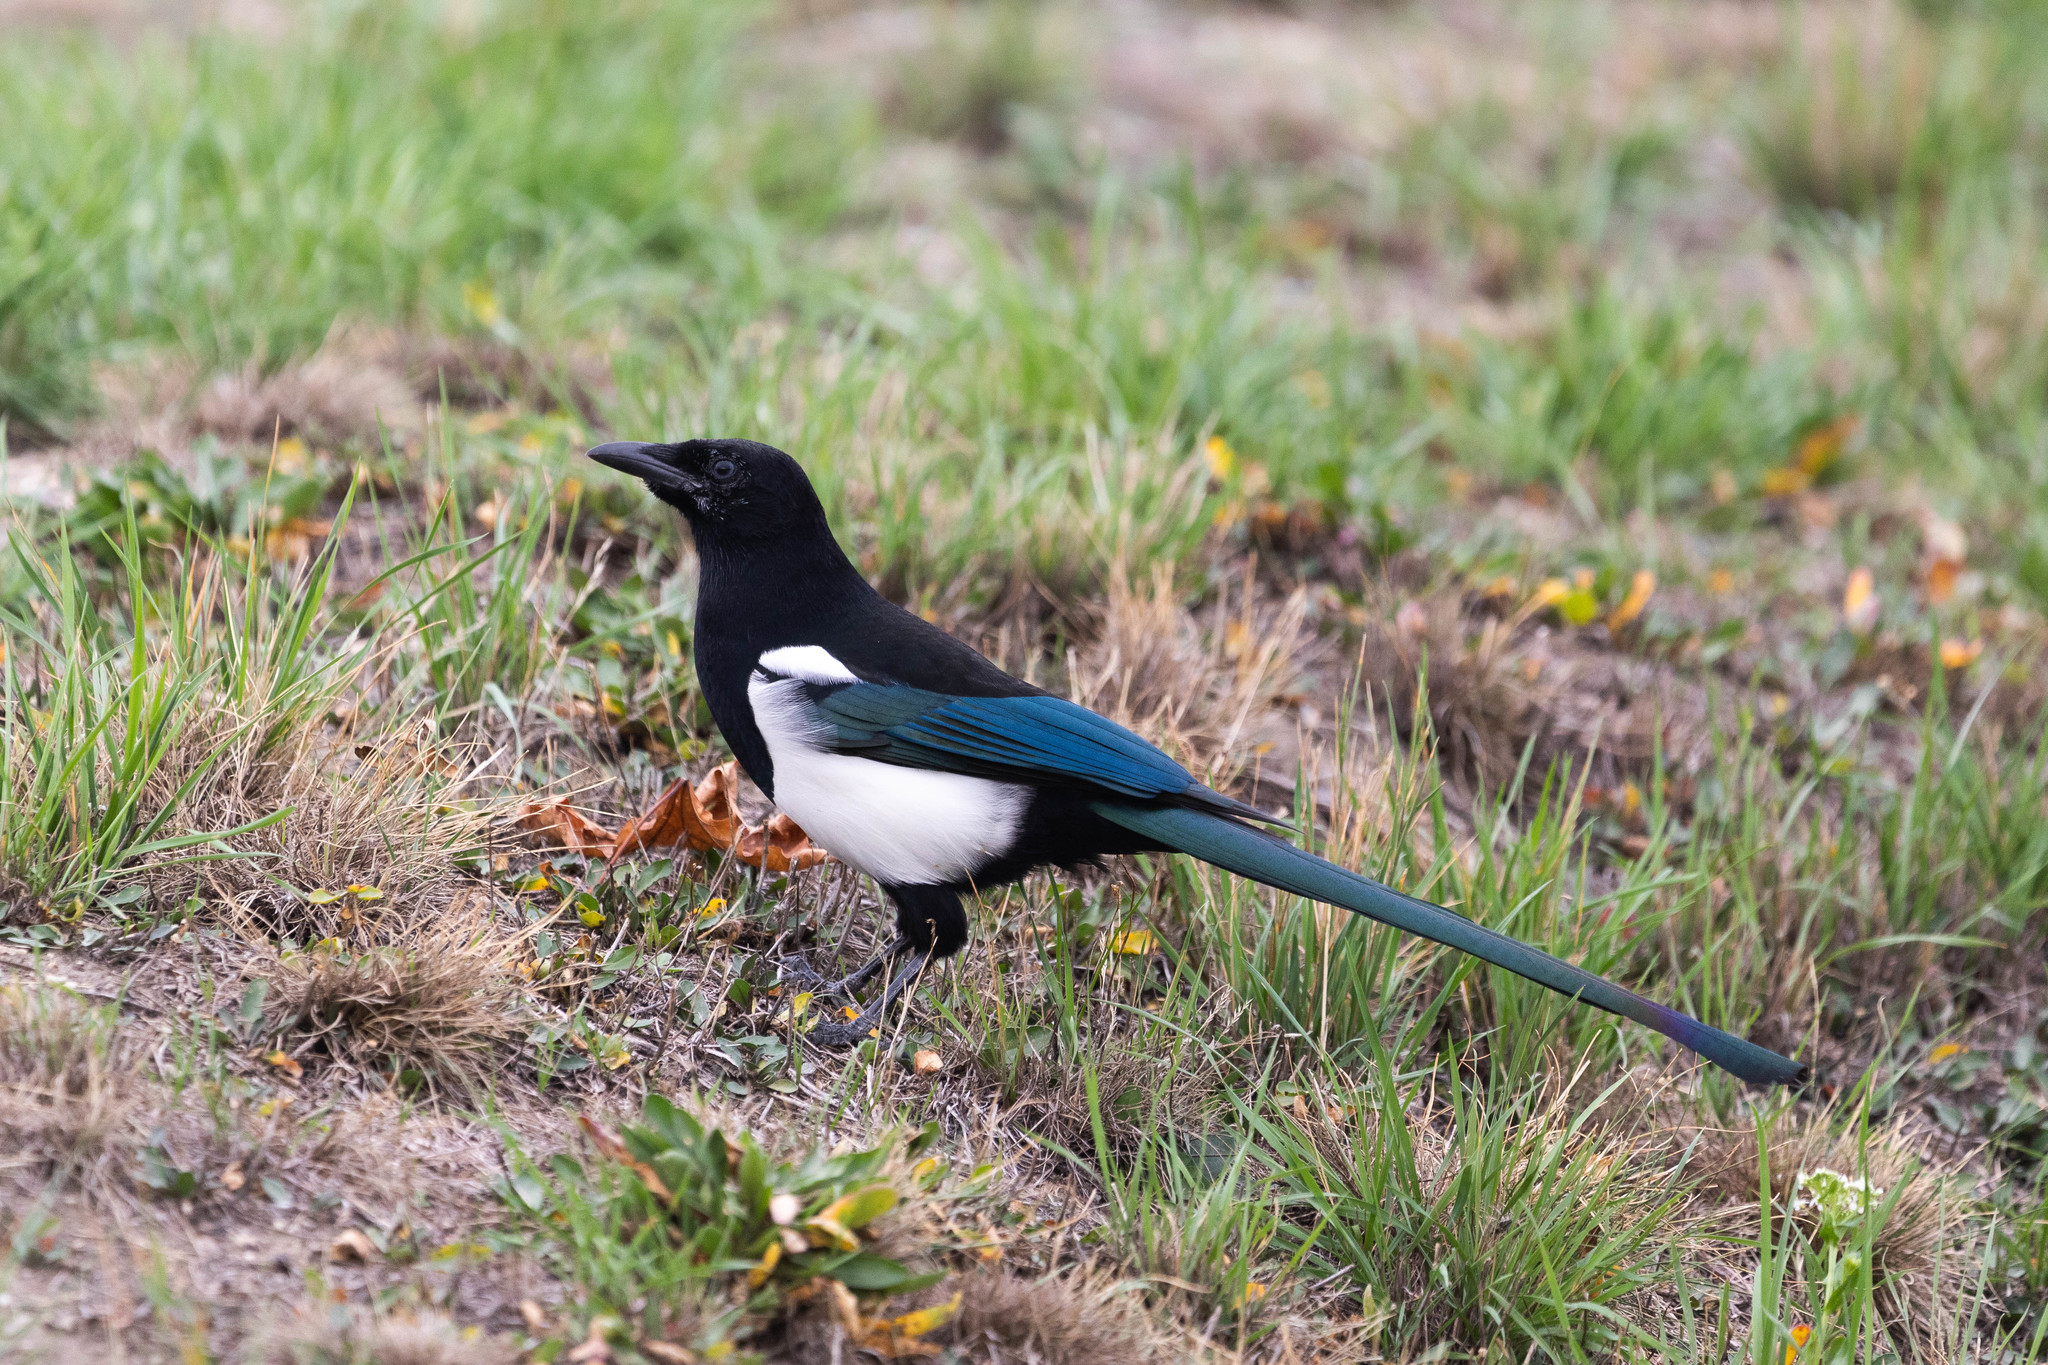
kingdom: Animalia
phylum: Chordata
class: Aves
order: Passeriformes
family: Corvidae
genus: Pica
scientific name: Pica hudsonia
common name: Black-billed magpie
